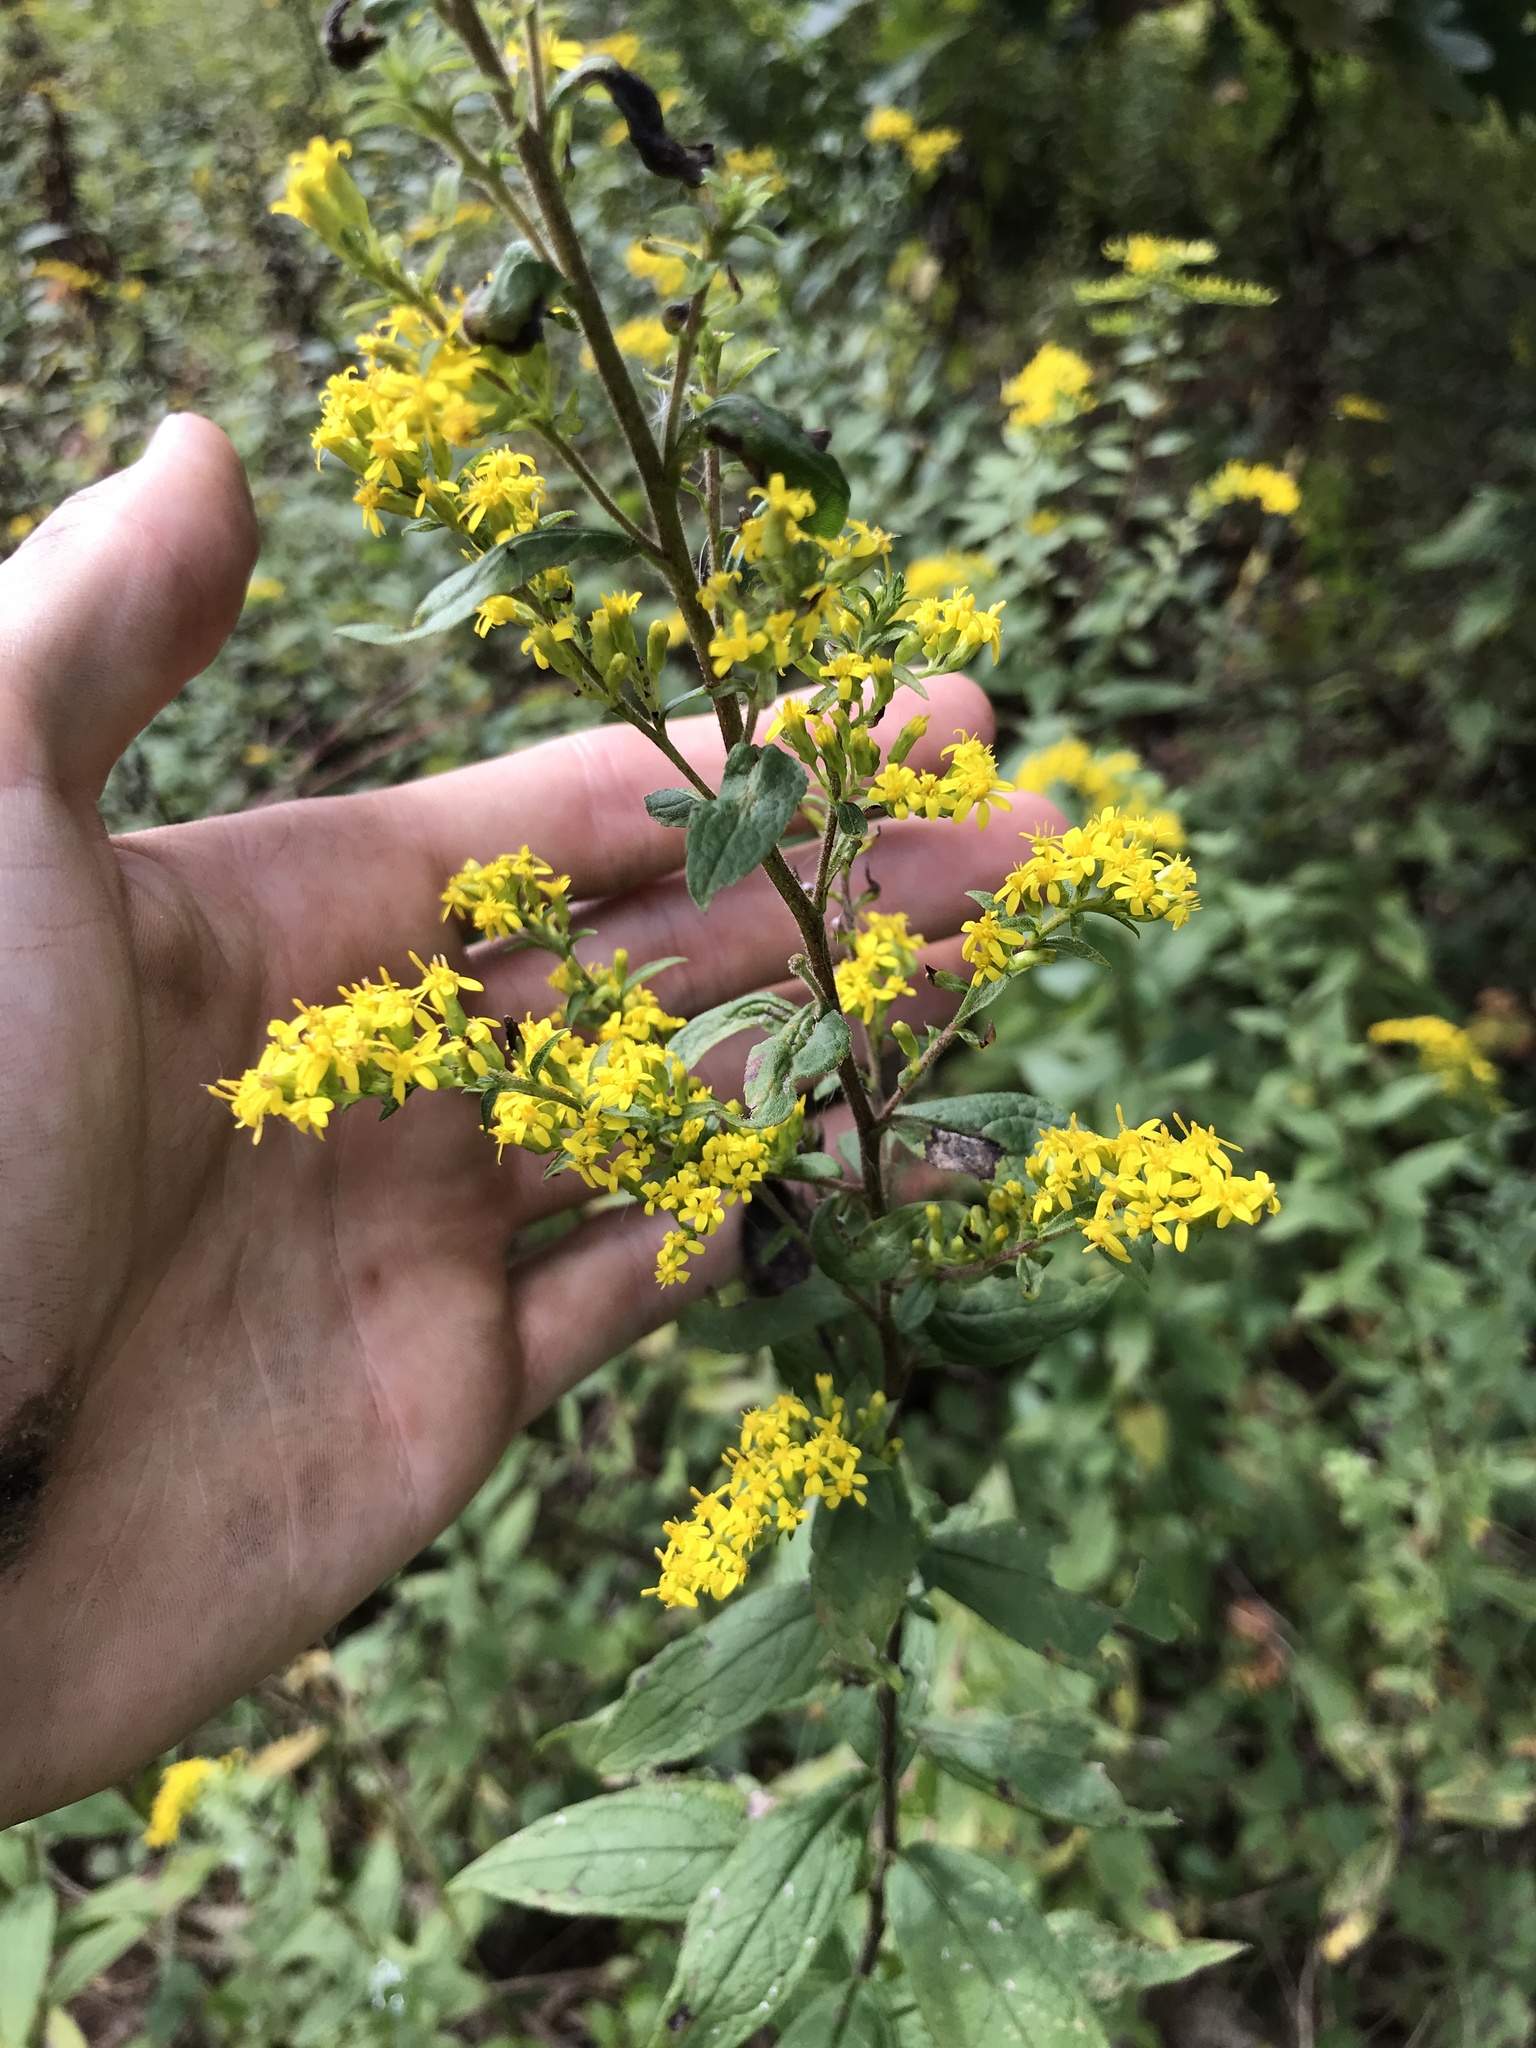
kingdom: Plantae
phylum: Tracheophyta
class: Magnoliopsida
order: Asterales
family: Asteraceae
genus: Solidago
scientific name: Solidago rugosa
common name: Rough-stemmed goldenrod
